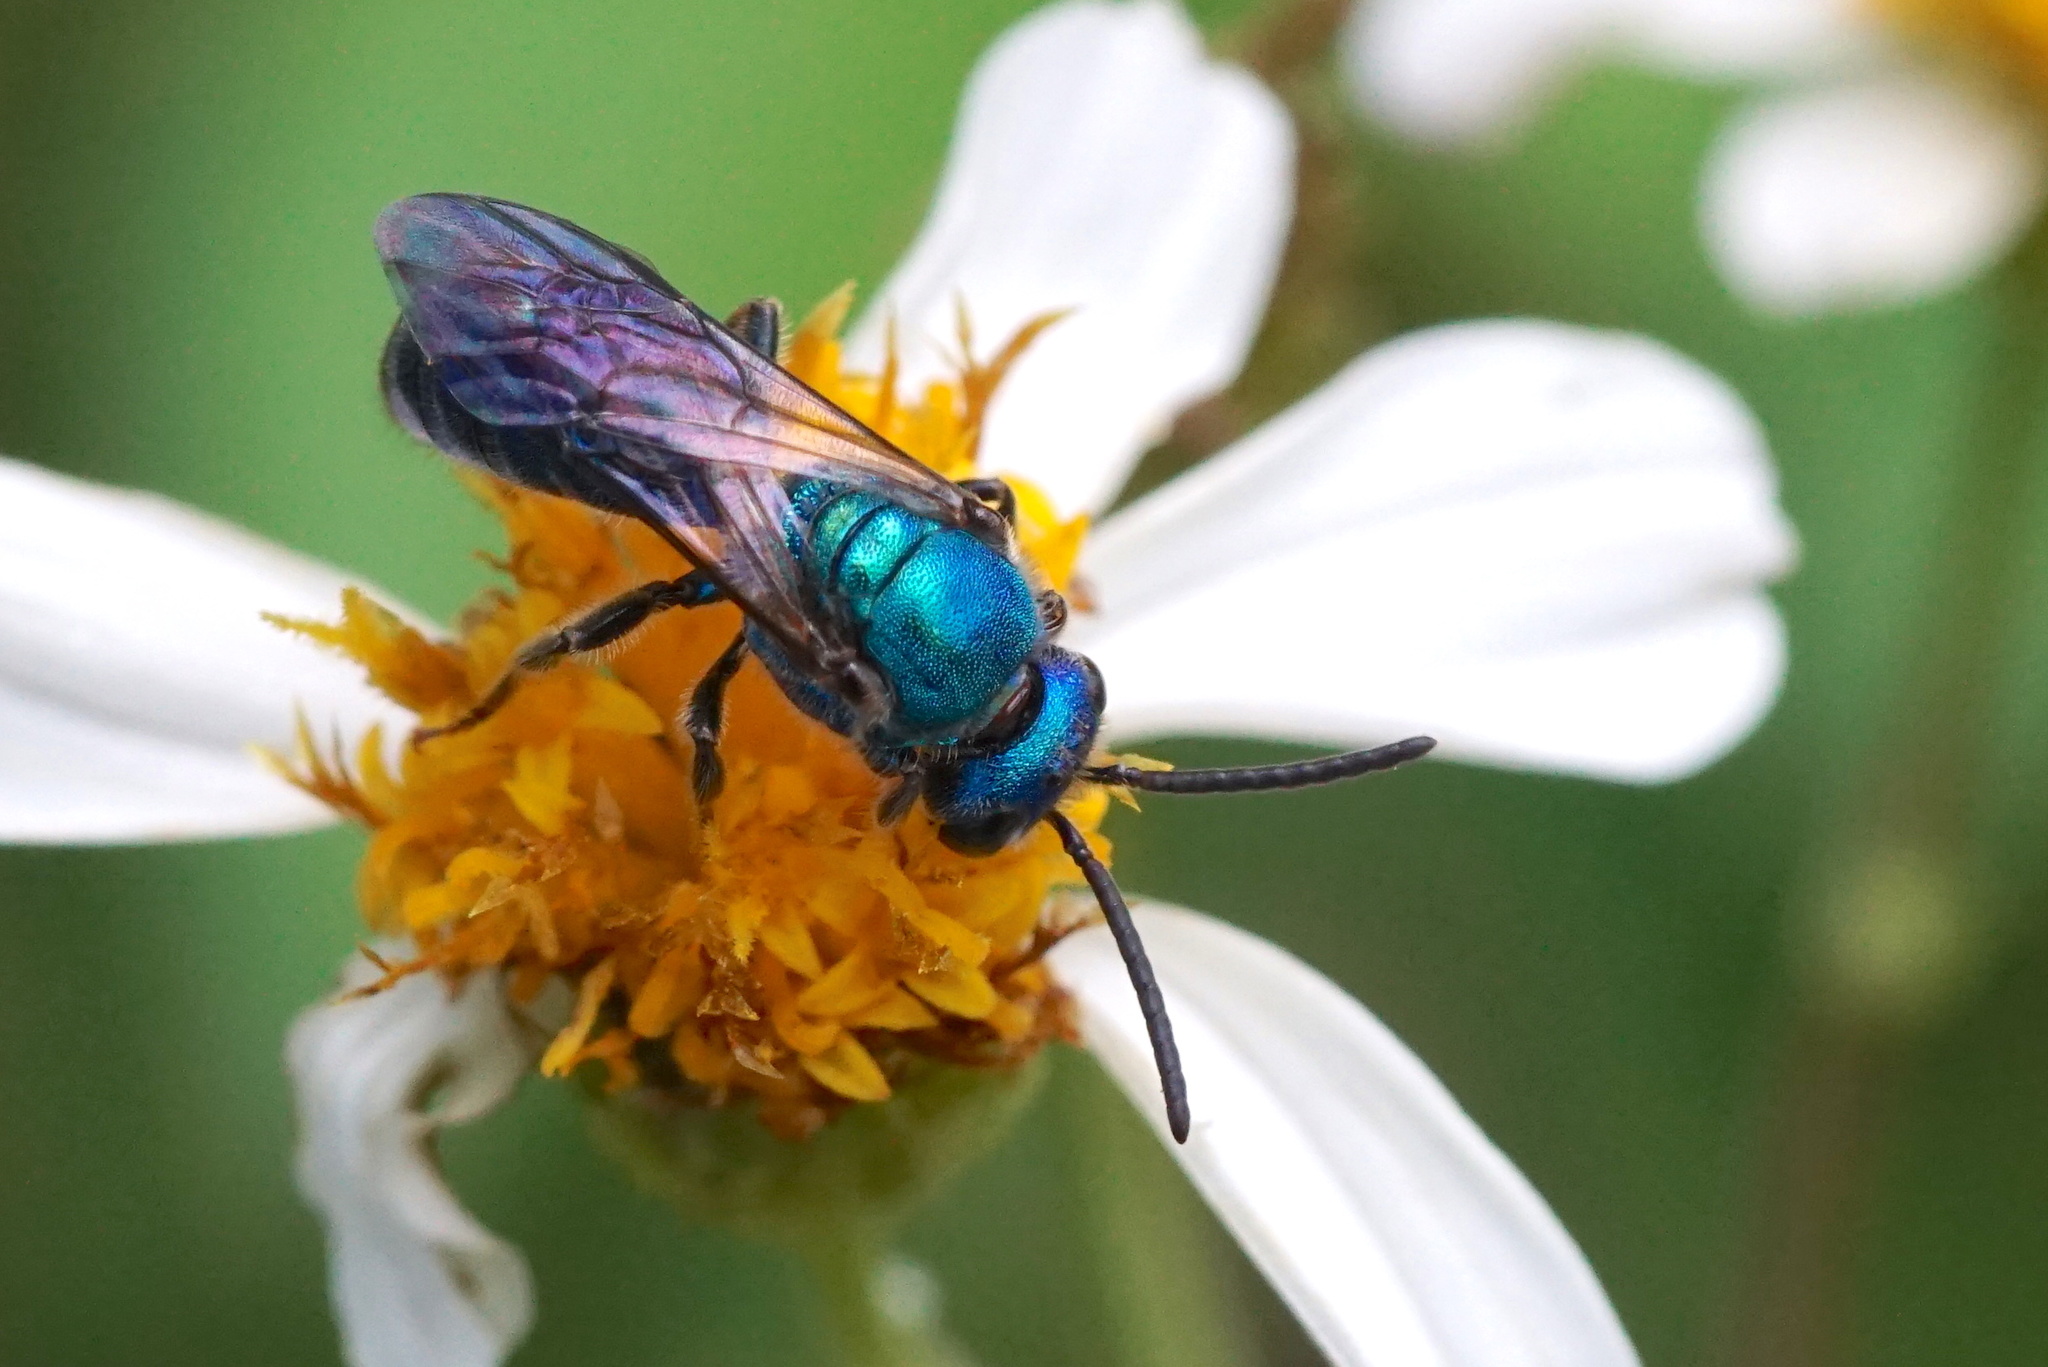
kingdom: Animalia
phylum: Arthropoda
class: Insecta
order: Hymenoptera
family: Halictidae
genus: Augochlora
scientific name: Augochlora pura
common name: Pure green sweat bee
